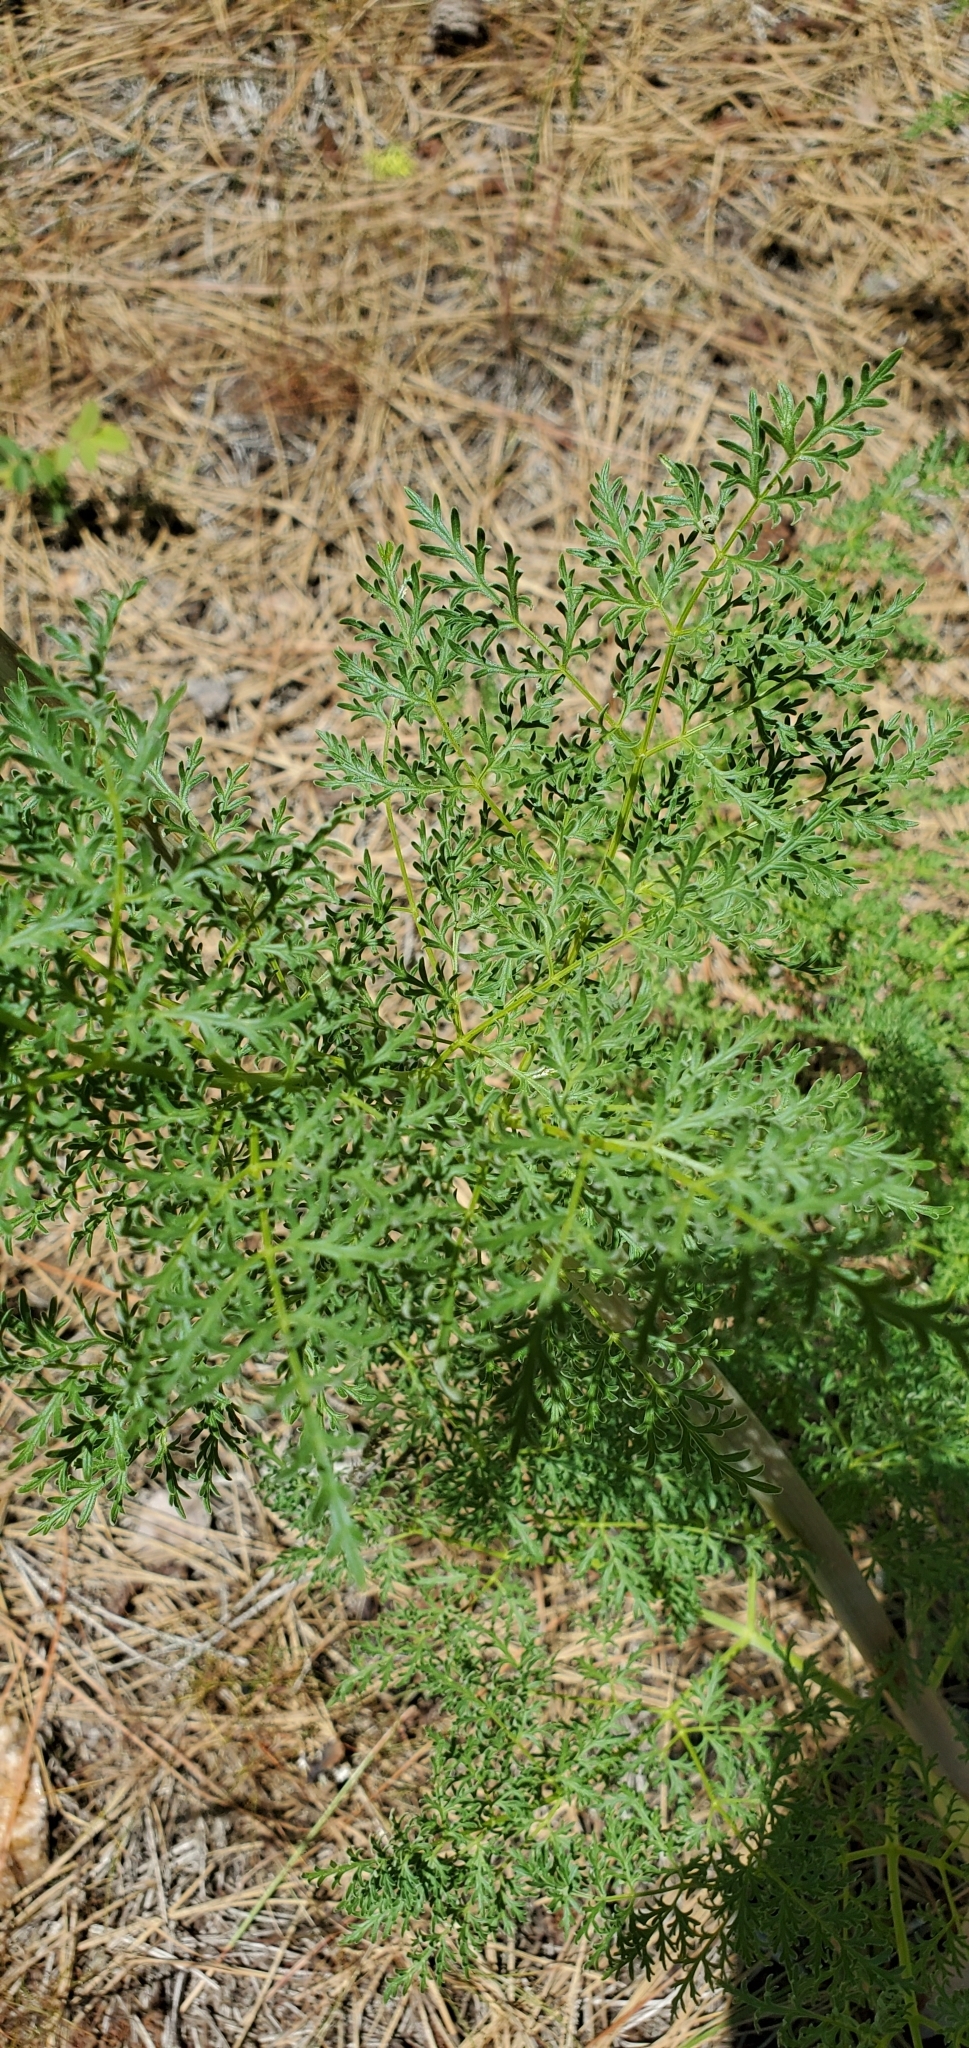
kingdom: Plantae
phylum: Tracheophyta
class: Magnoliopsida
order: Apiales
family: Apiaceae
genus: Lomatium
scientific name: Lomatium multifidum
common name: Carrot-leaved biscuitroot
